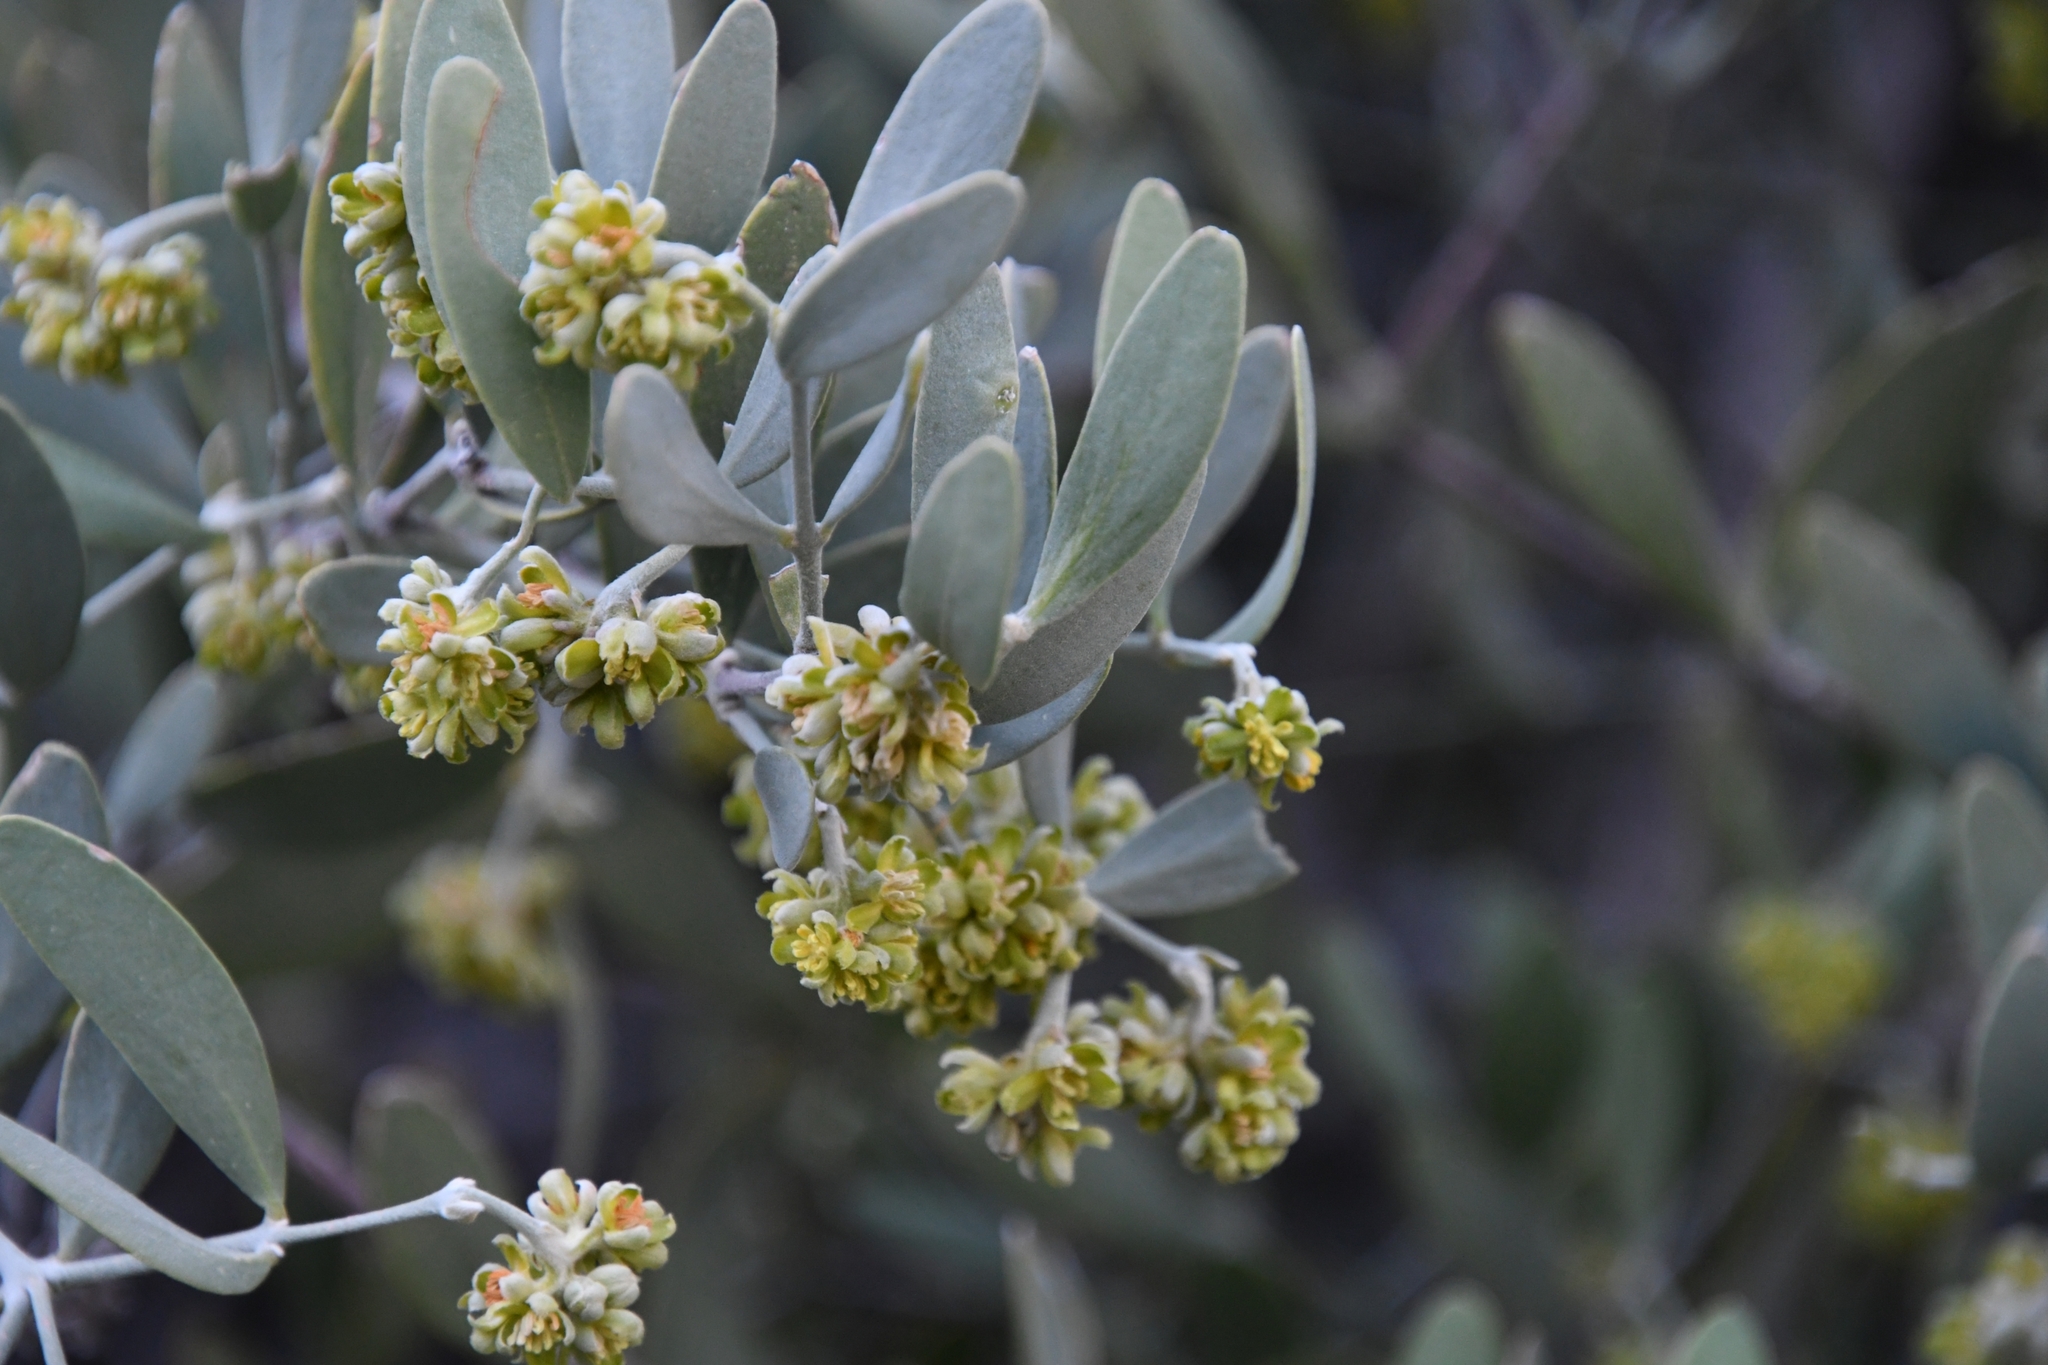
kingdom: Plantae
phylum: Tracheophyta
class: Magnoliopsida
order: Caryophyllales
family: Simmondsiaceae
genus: Simmondsia
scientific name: Simmondsia chinensis
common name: Jojoba
